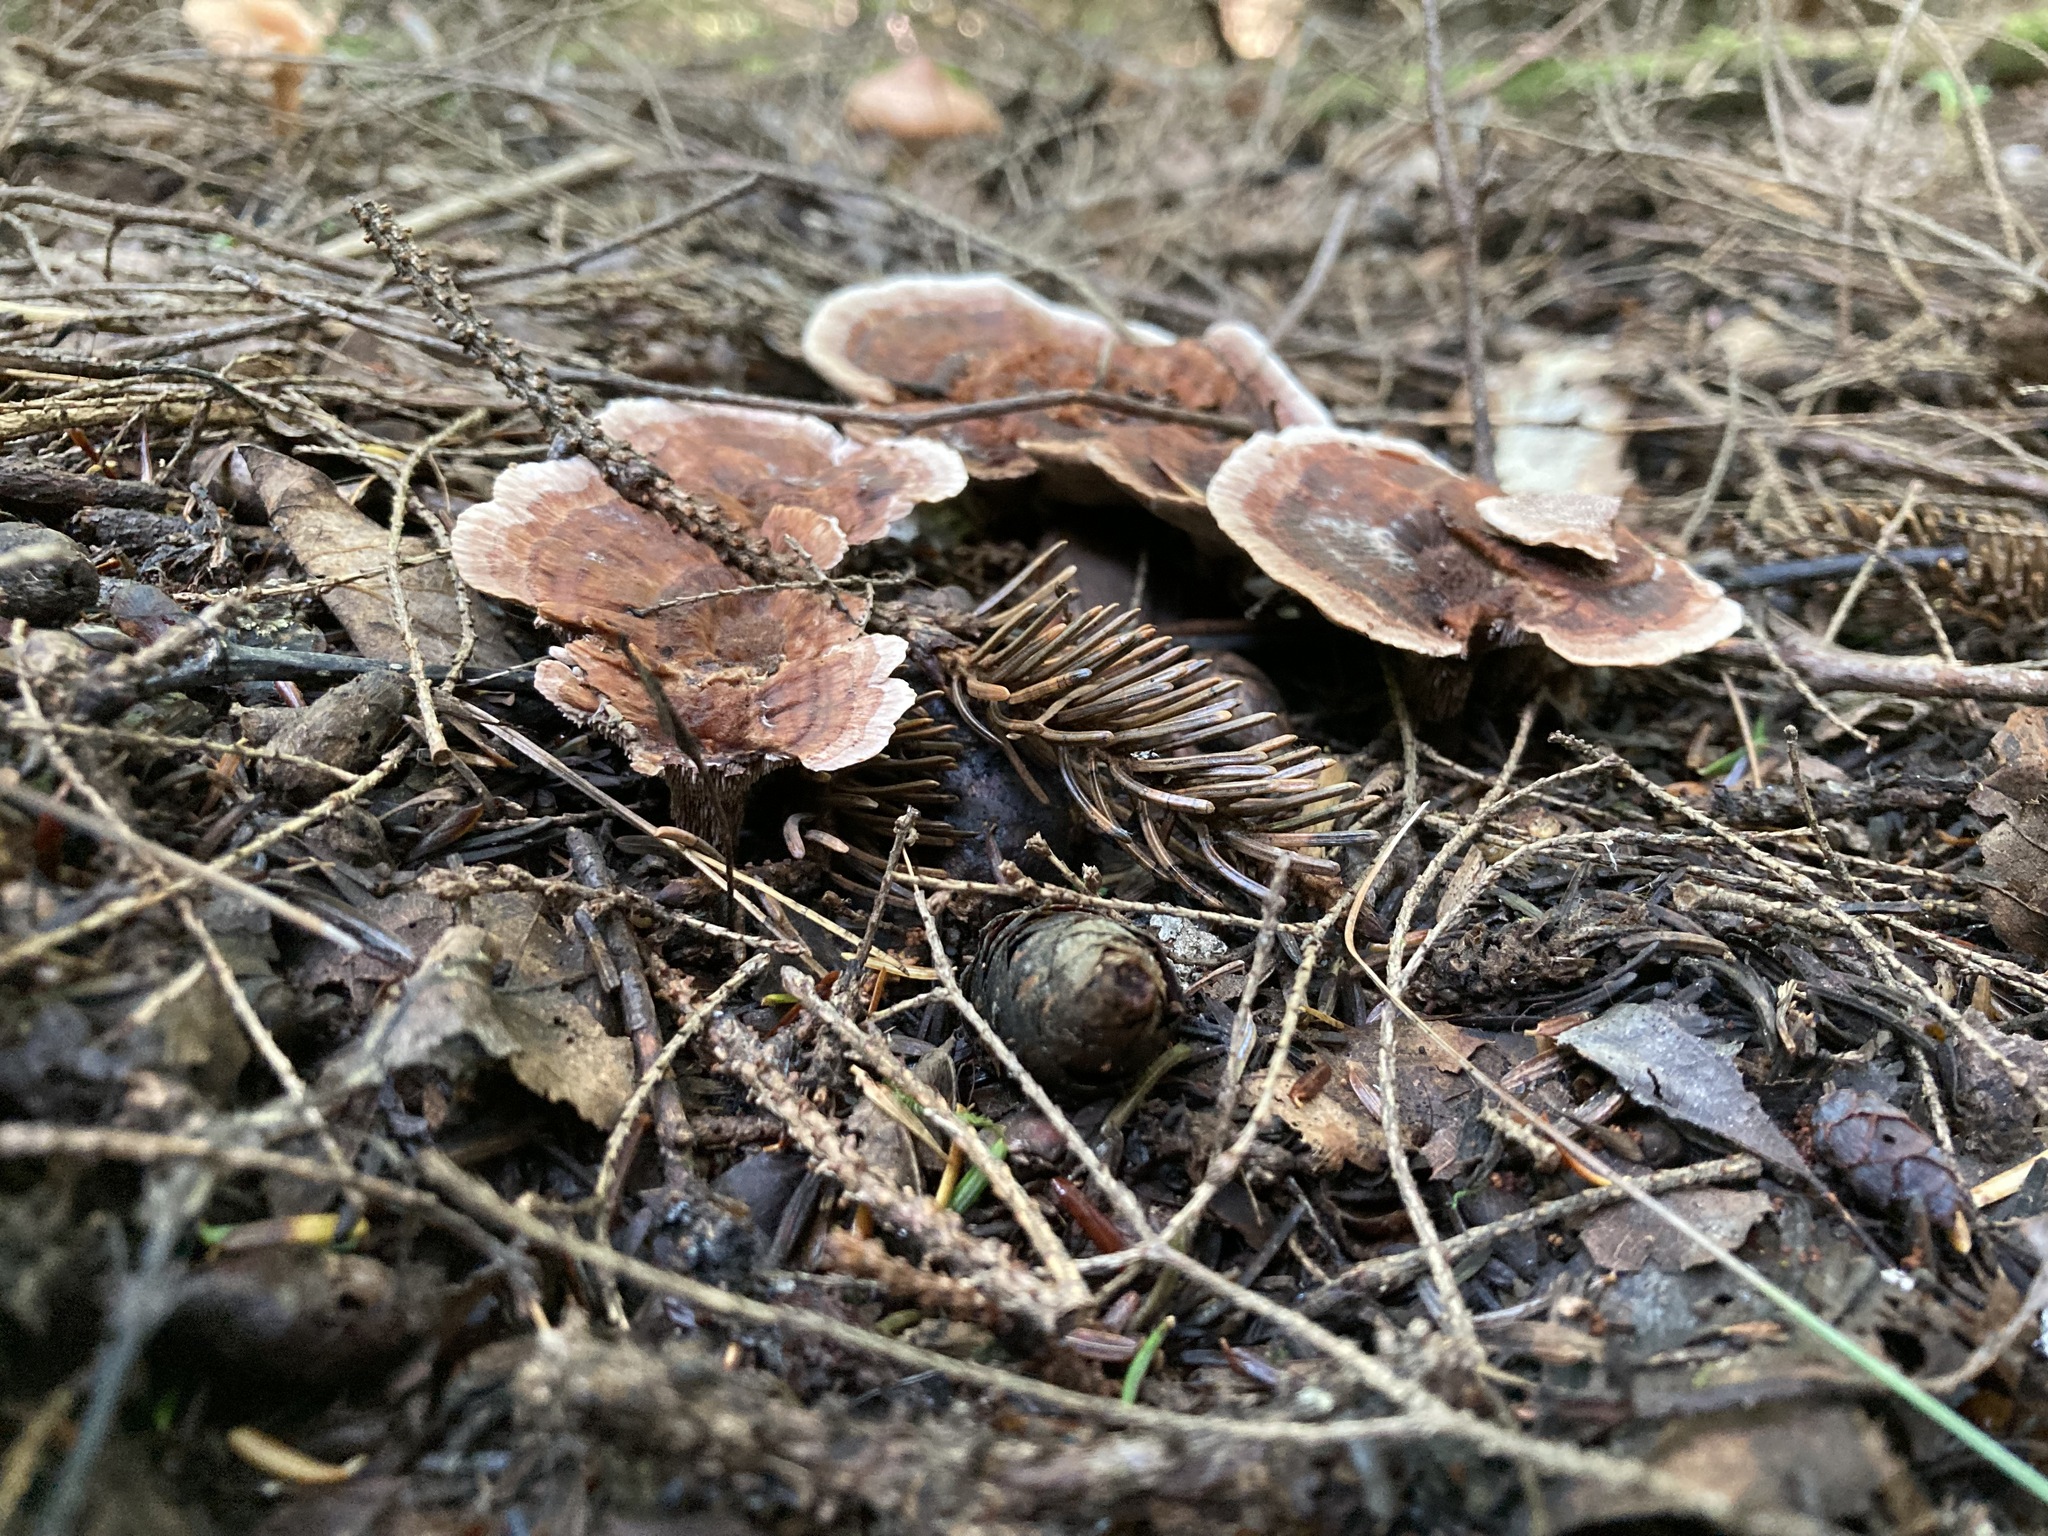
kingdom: Fungi
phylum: Basidiomycota
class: Agaricomycetes
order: Thelephorales
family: Bankeraceae
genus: Hydnellum
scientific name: Hydnellum concrescens
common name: Zoned tooth
